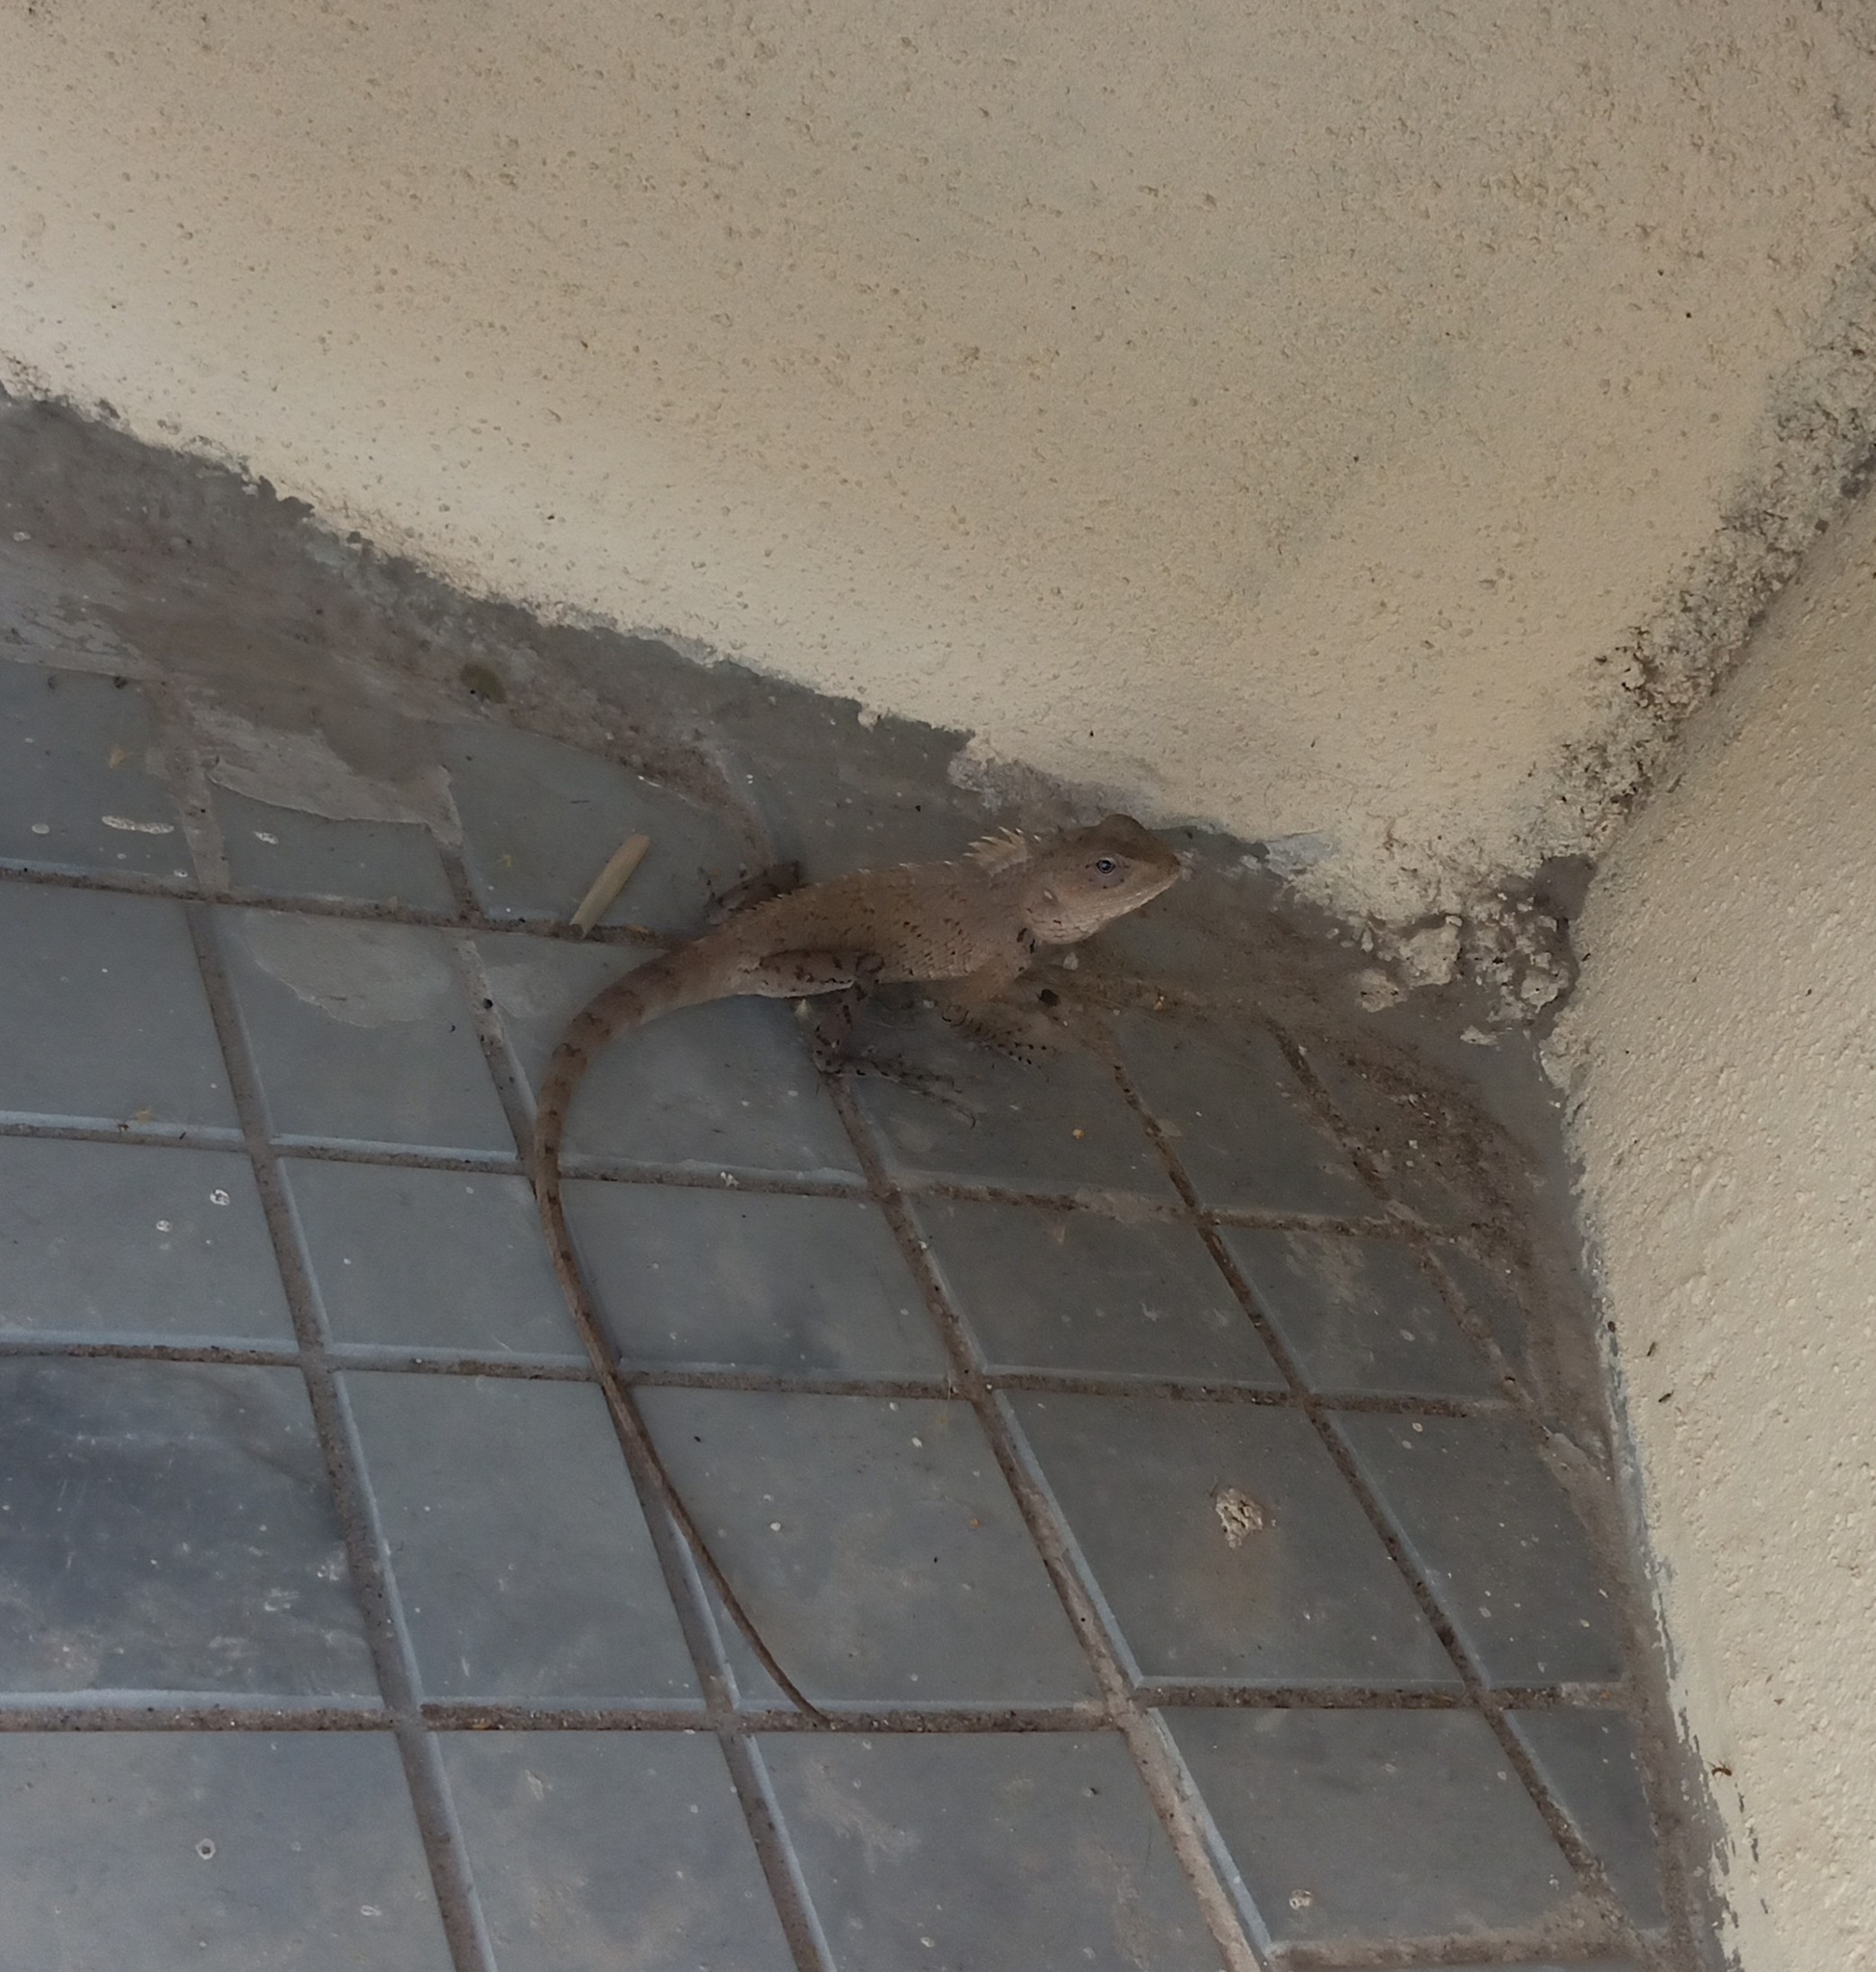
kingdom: Animalia
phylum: Chordata
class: Squamata
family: Agamidae
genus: Calotes
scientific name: Calotes versicolor
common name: Oriental garden lizard
